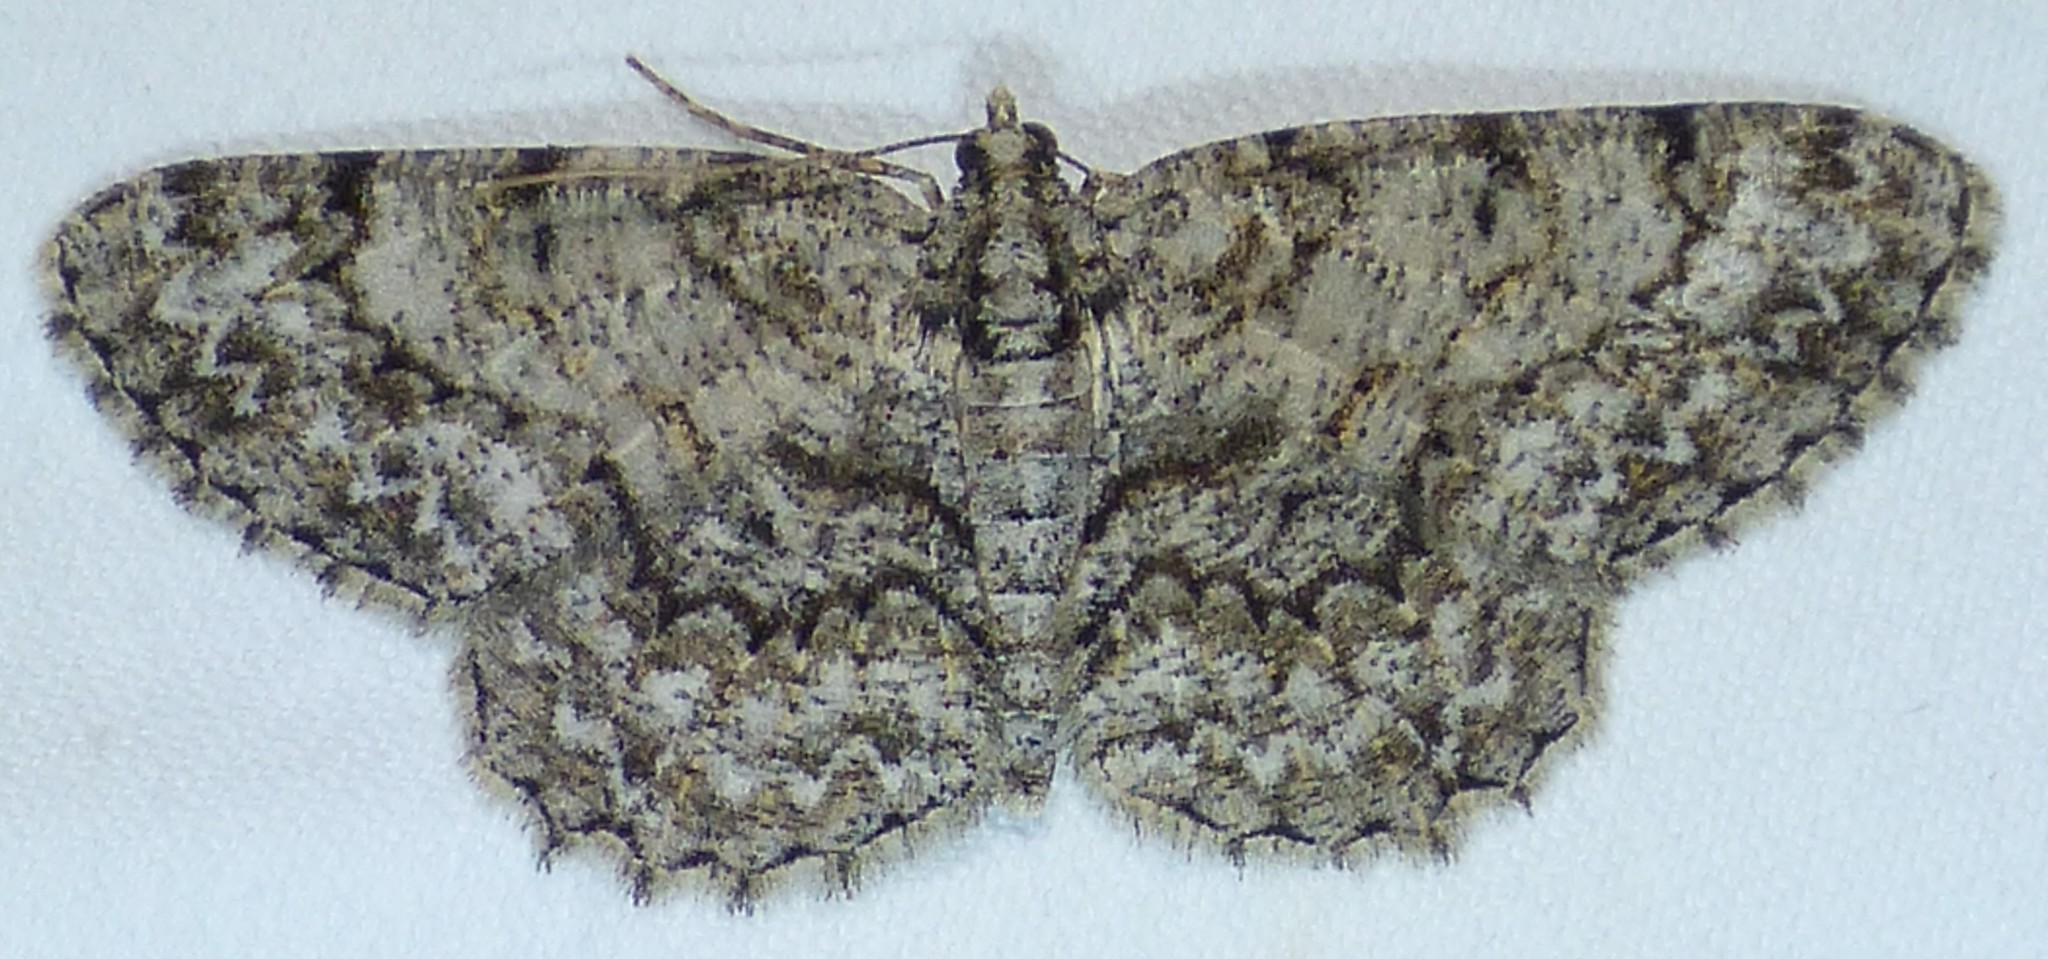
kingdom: Animalia
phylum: Arthropoda
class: Insecta
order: Lepidoptera
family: Geometridae
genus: Protoboarmia
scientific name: Protoboarmia porcelaria
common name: Porcelain gray
